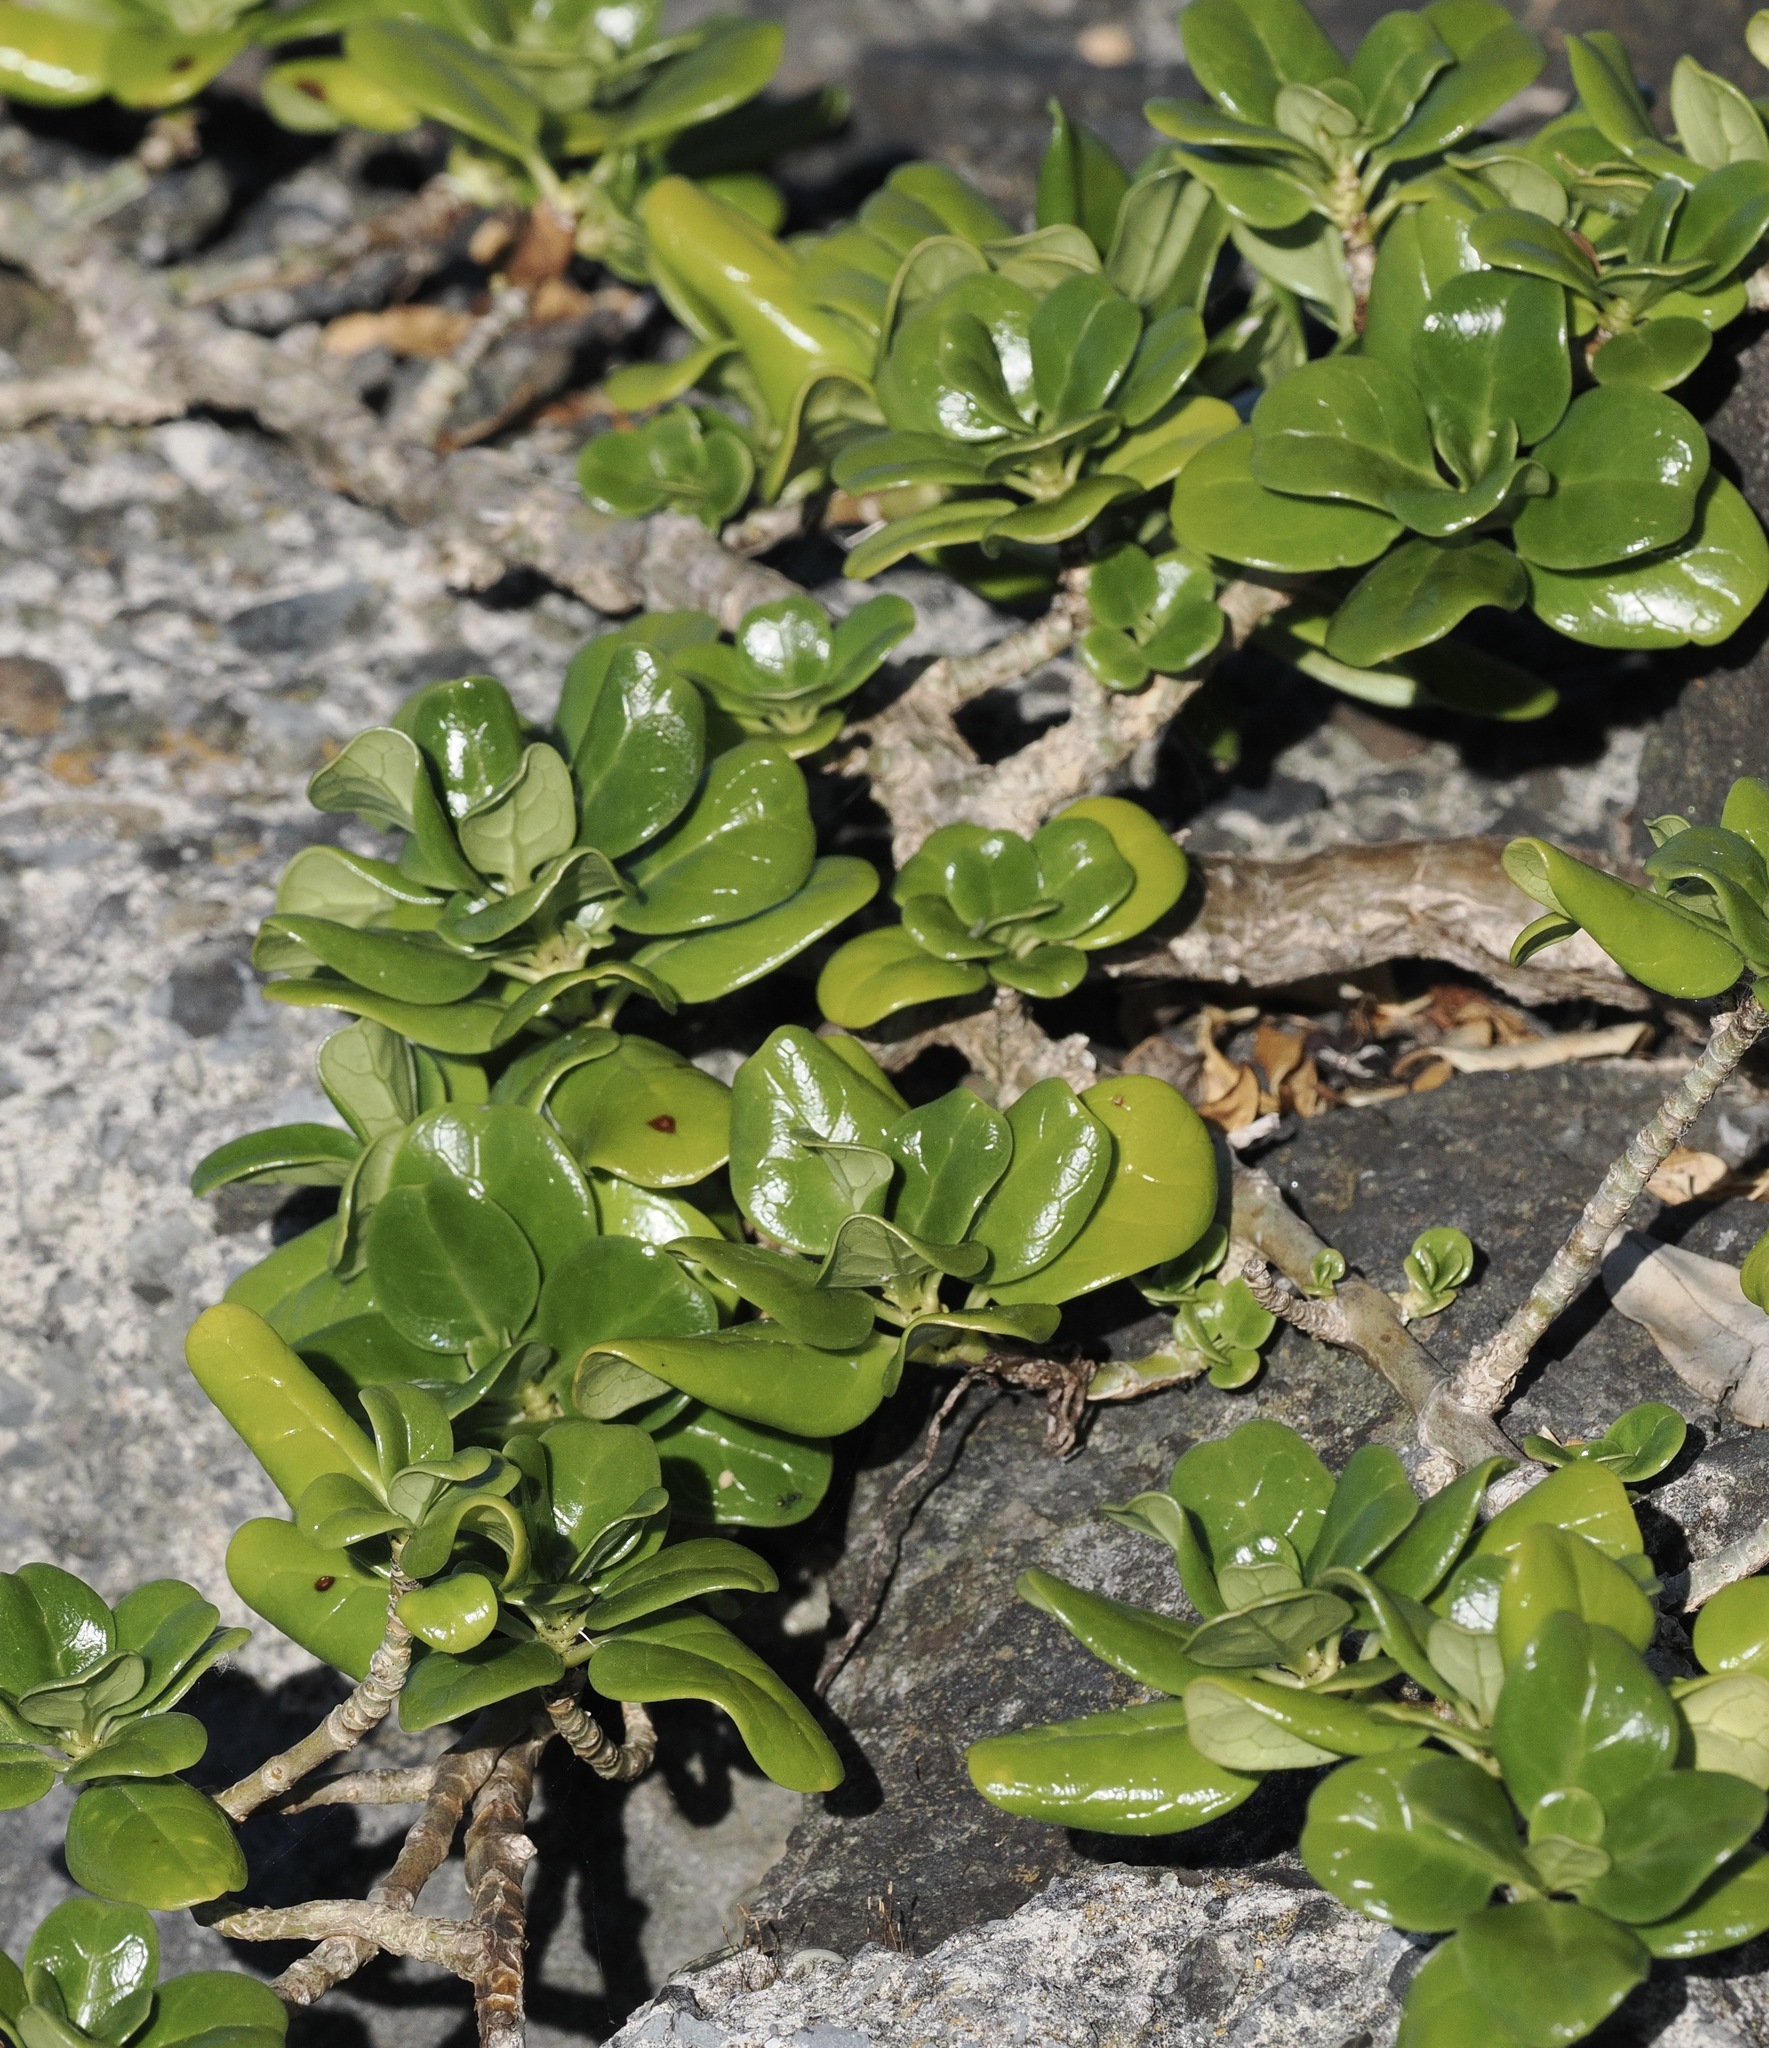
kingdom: Plantae
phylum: Tracheophyta
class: Magnoliopsida
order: Gentianales
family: Rubiaceae
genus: Coprosma
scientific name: Coprosma repens
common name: Tree bedstraw
